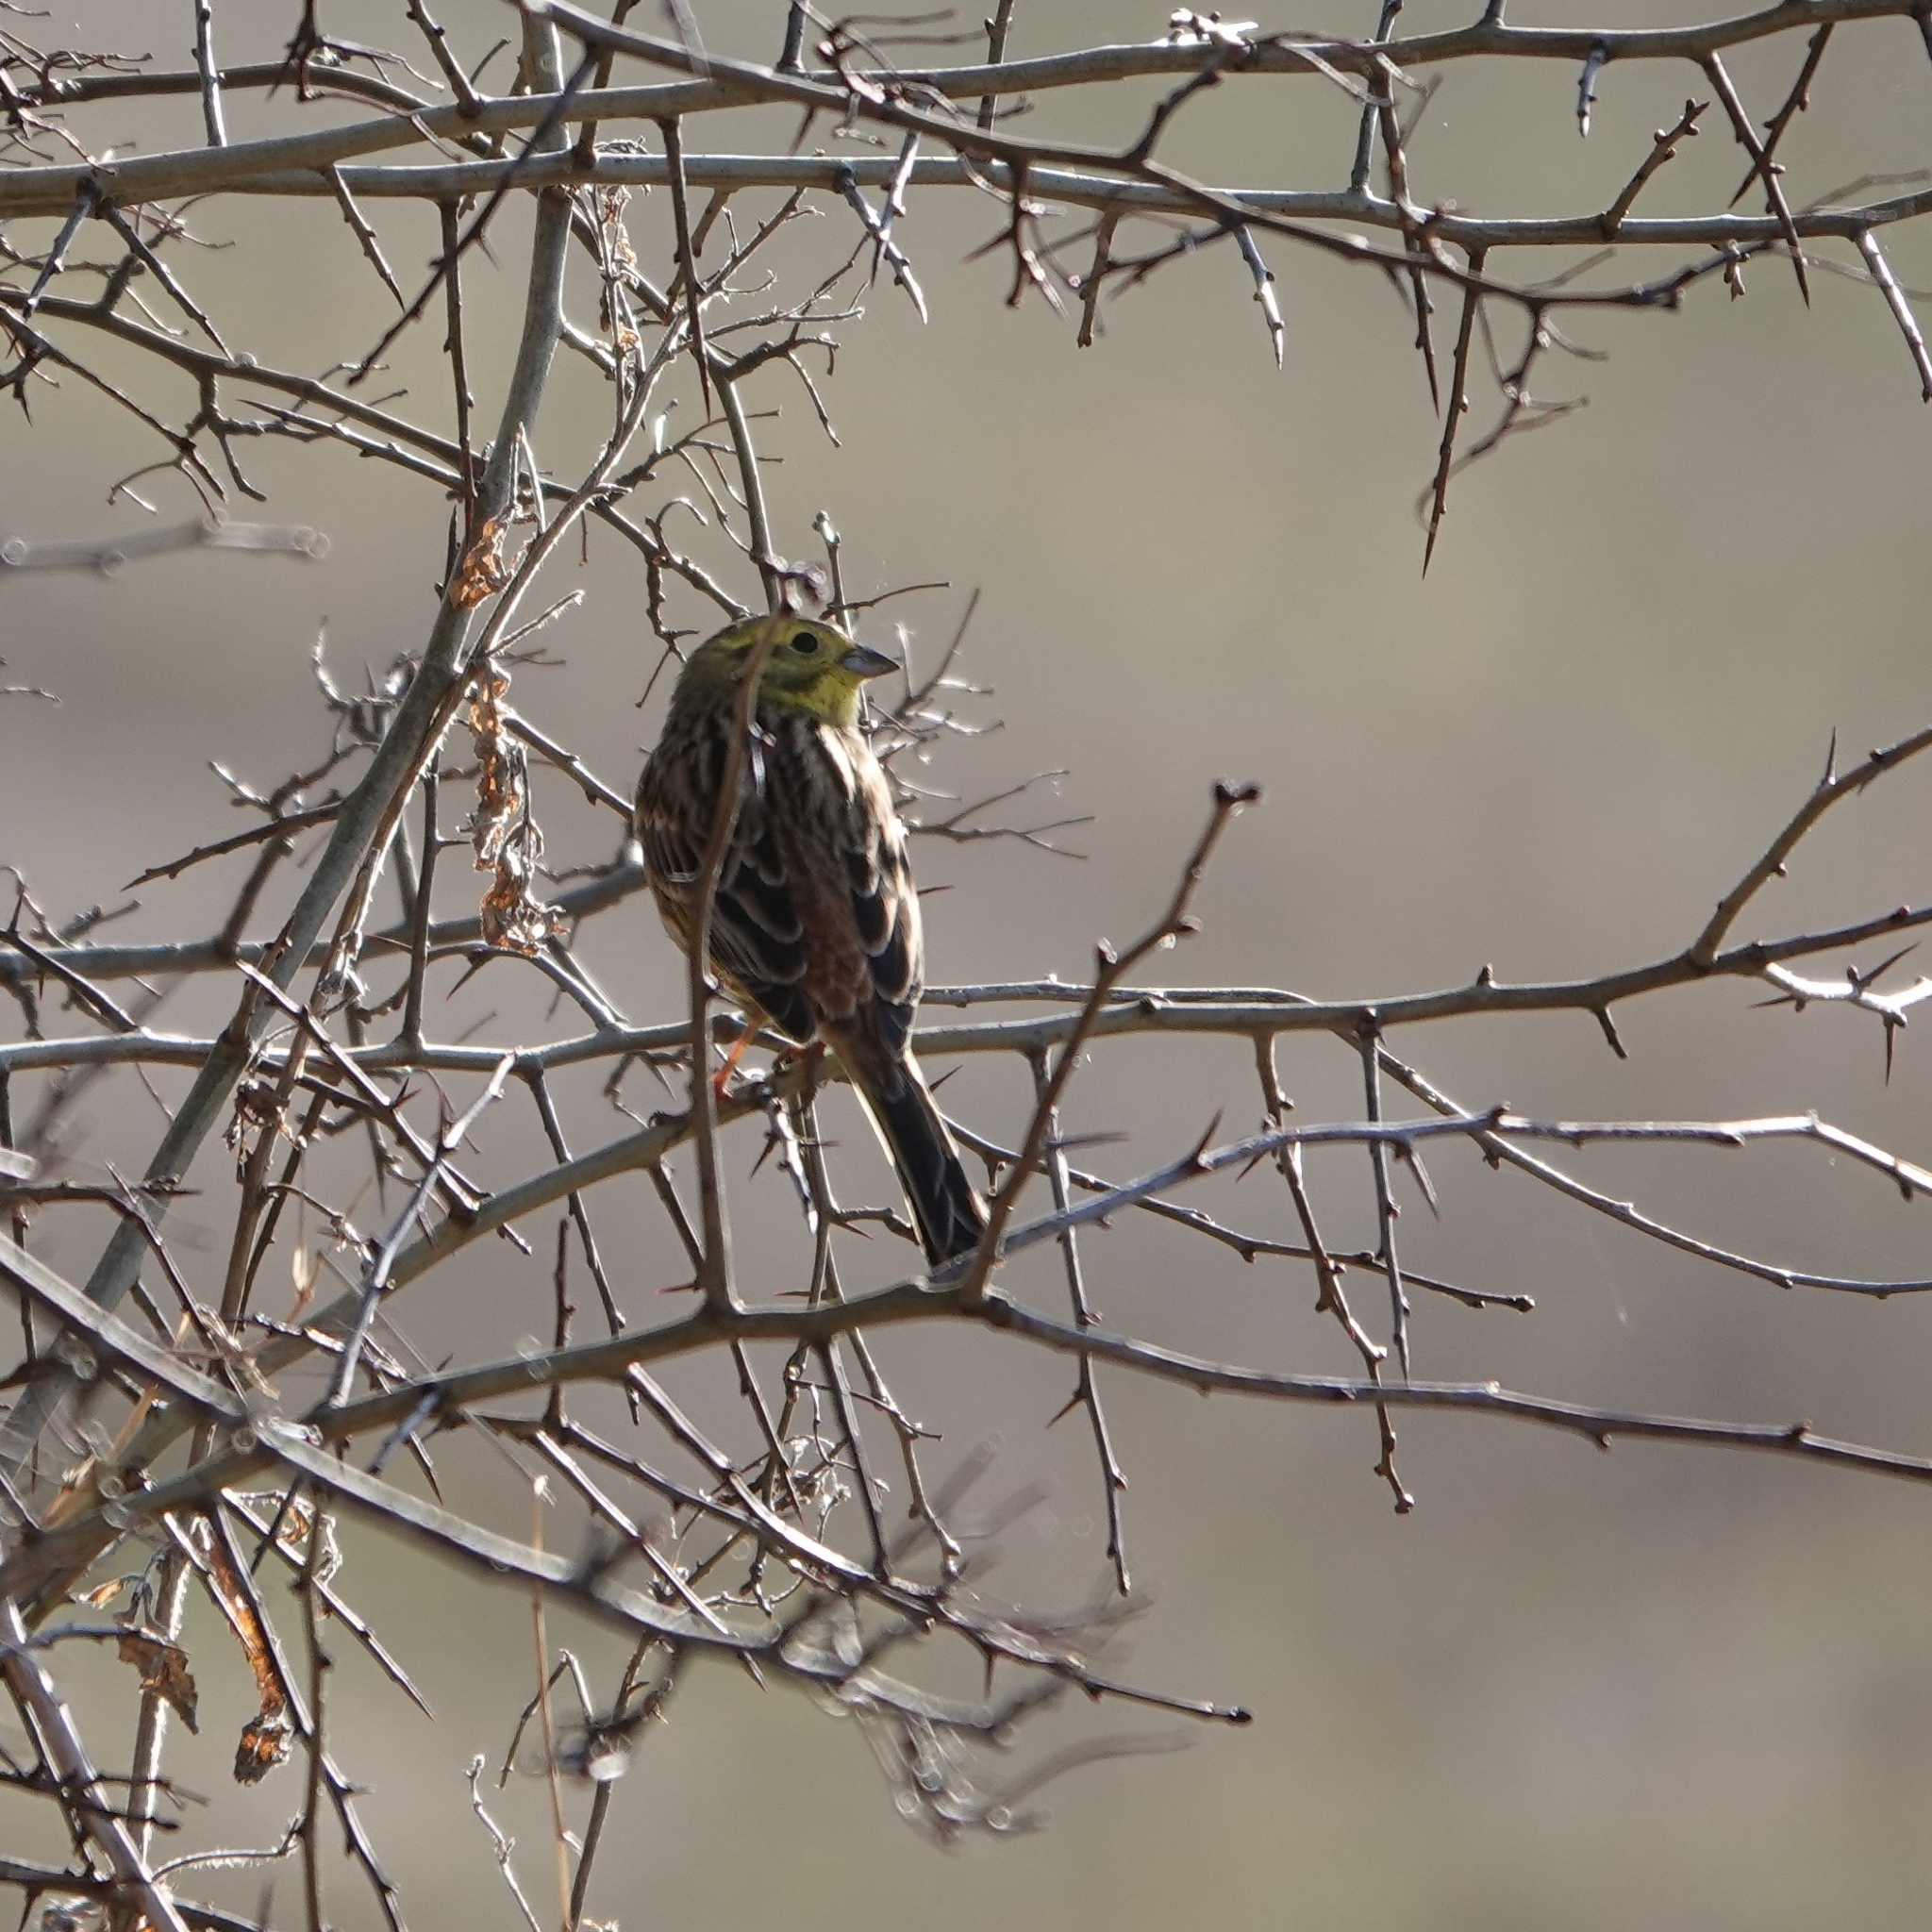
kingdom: Animalia
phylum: Chordata
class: Aves
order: Passeriformes
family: Emberizidae
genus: Emberiza
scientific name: Emberiza citrinella
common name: Yellowhammer
